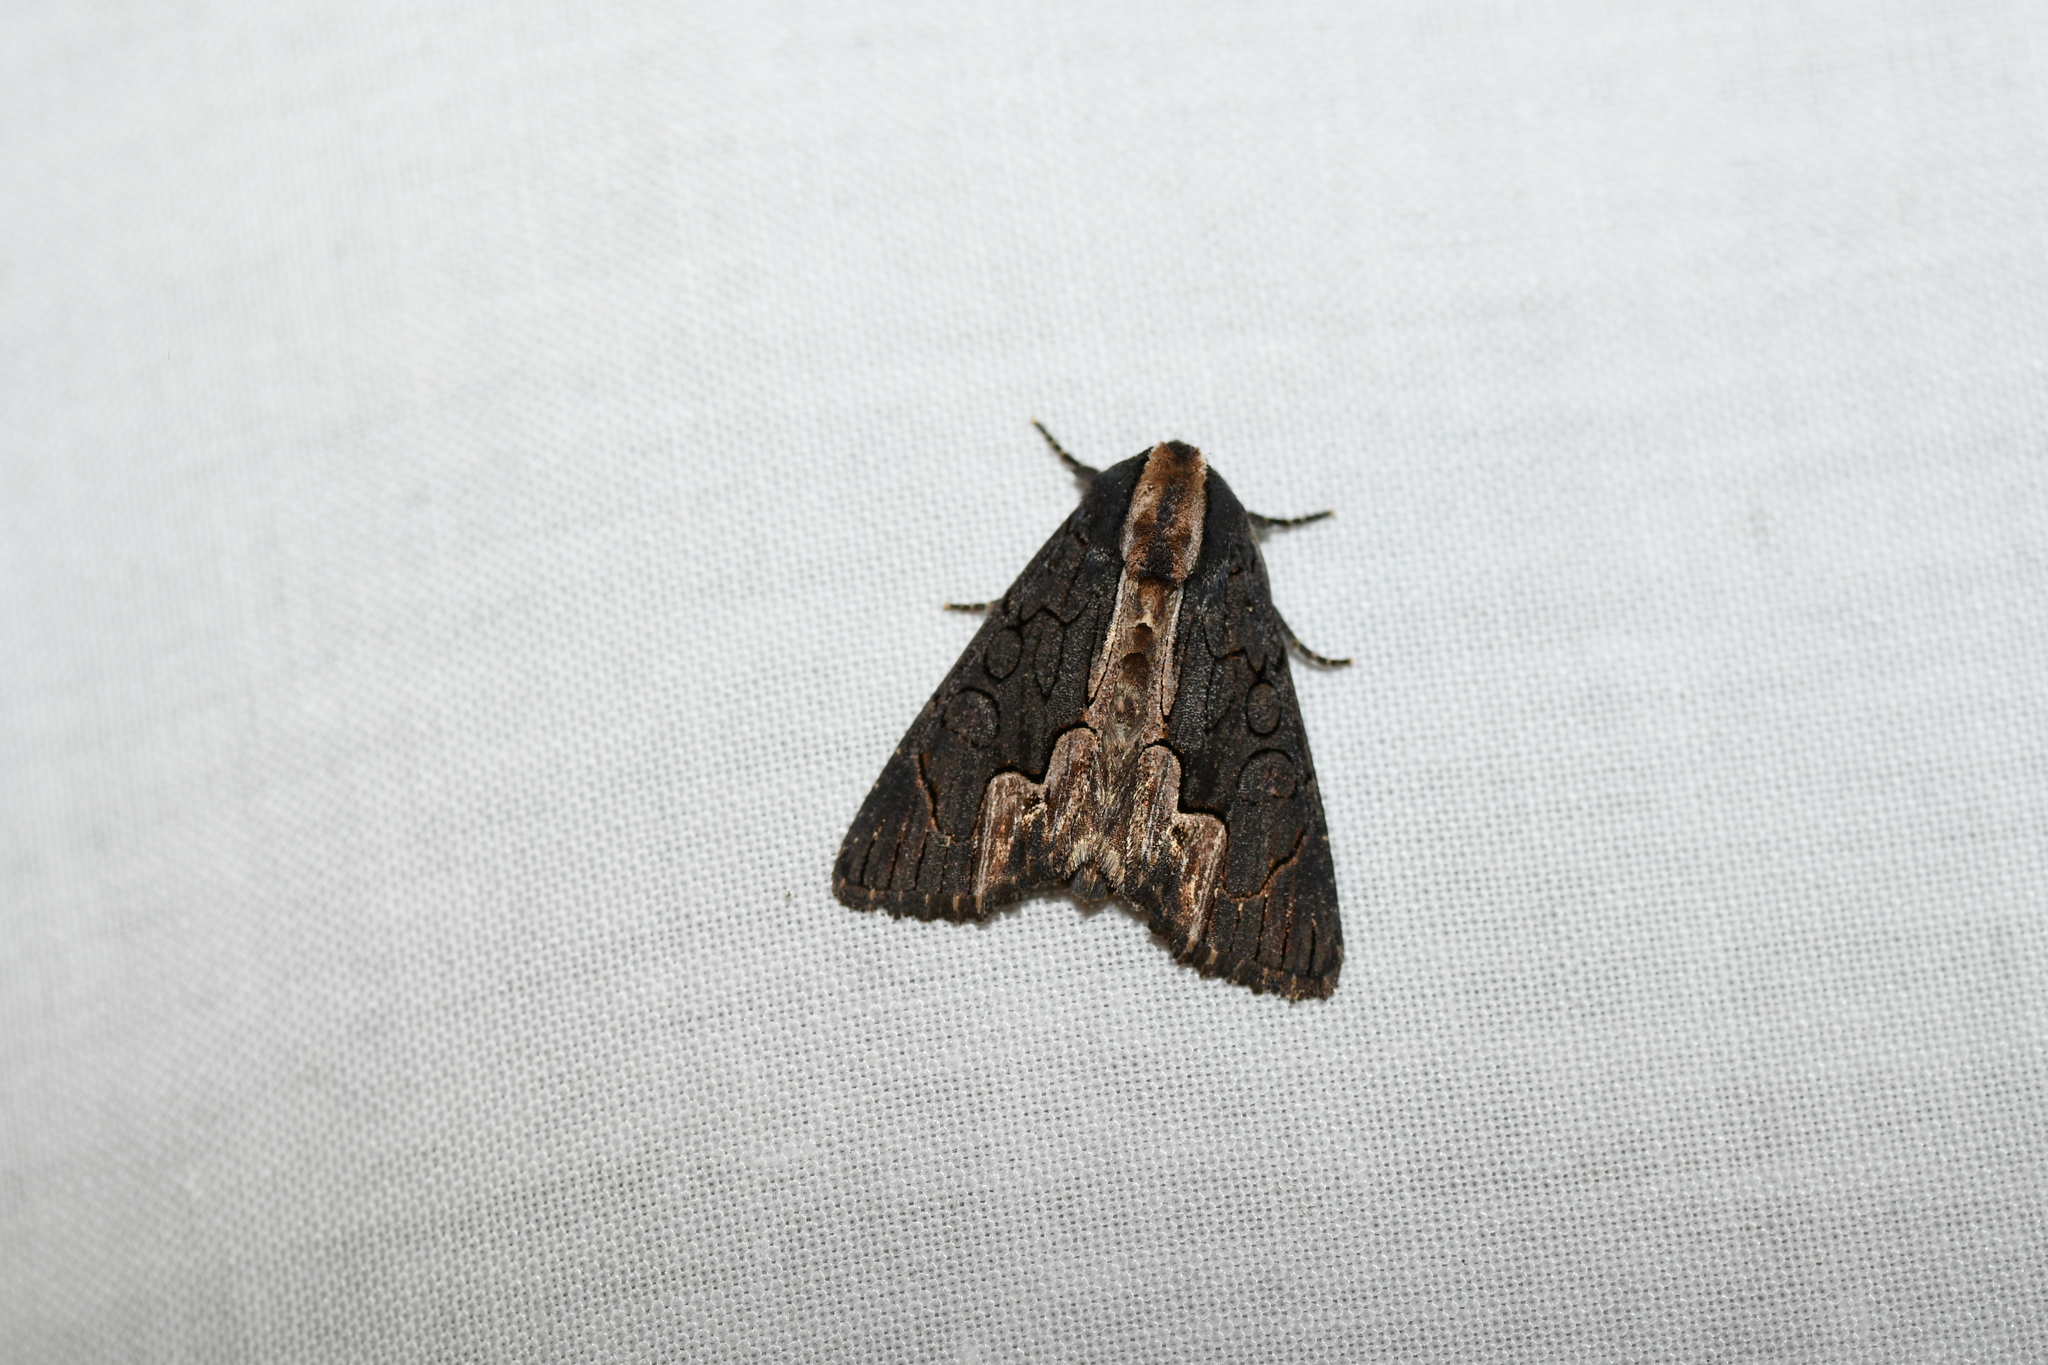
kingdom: Animalia
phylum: Arthropoda
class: Insecta
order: Lepidoptera
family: Noctuidae
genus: Dypterygia
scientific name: Dypterygia rozmani
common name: American bird's-wing
